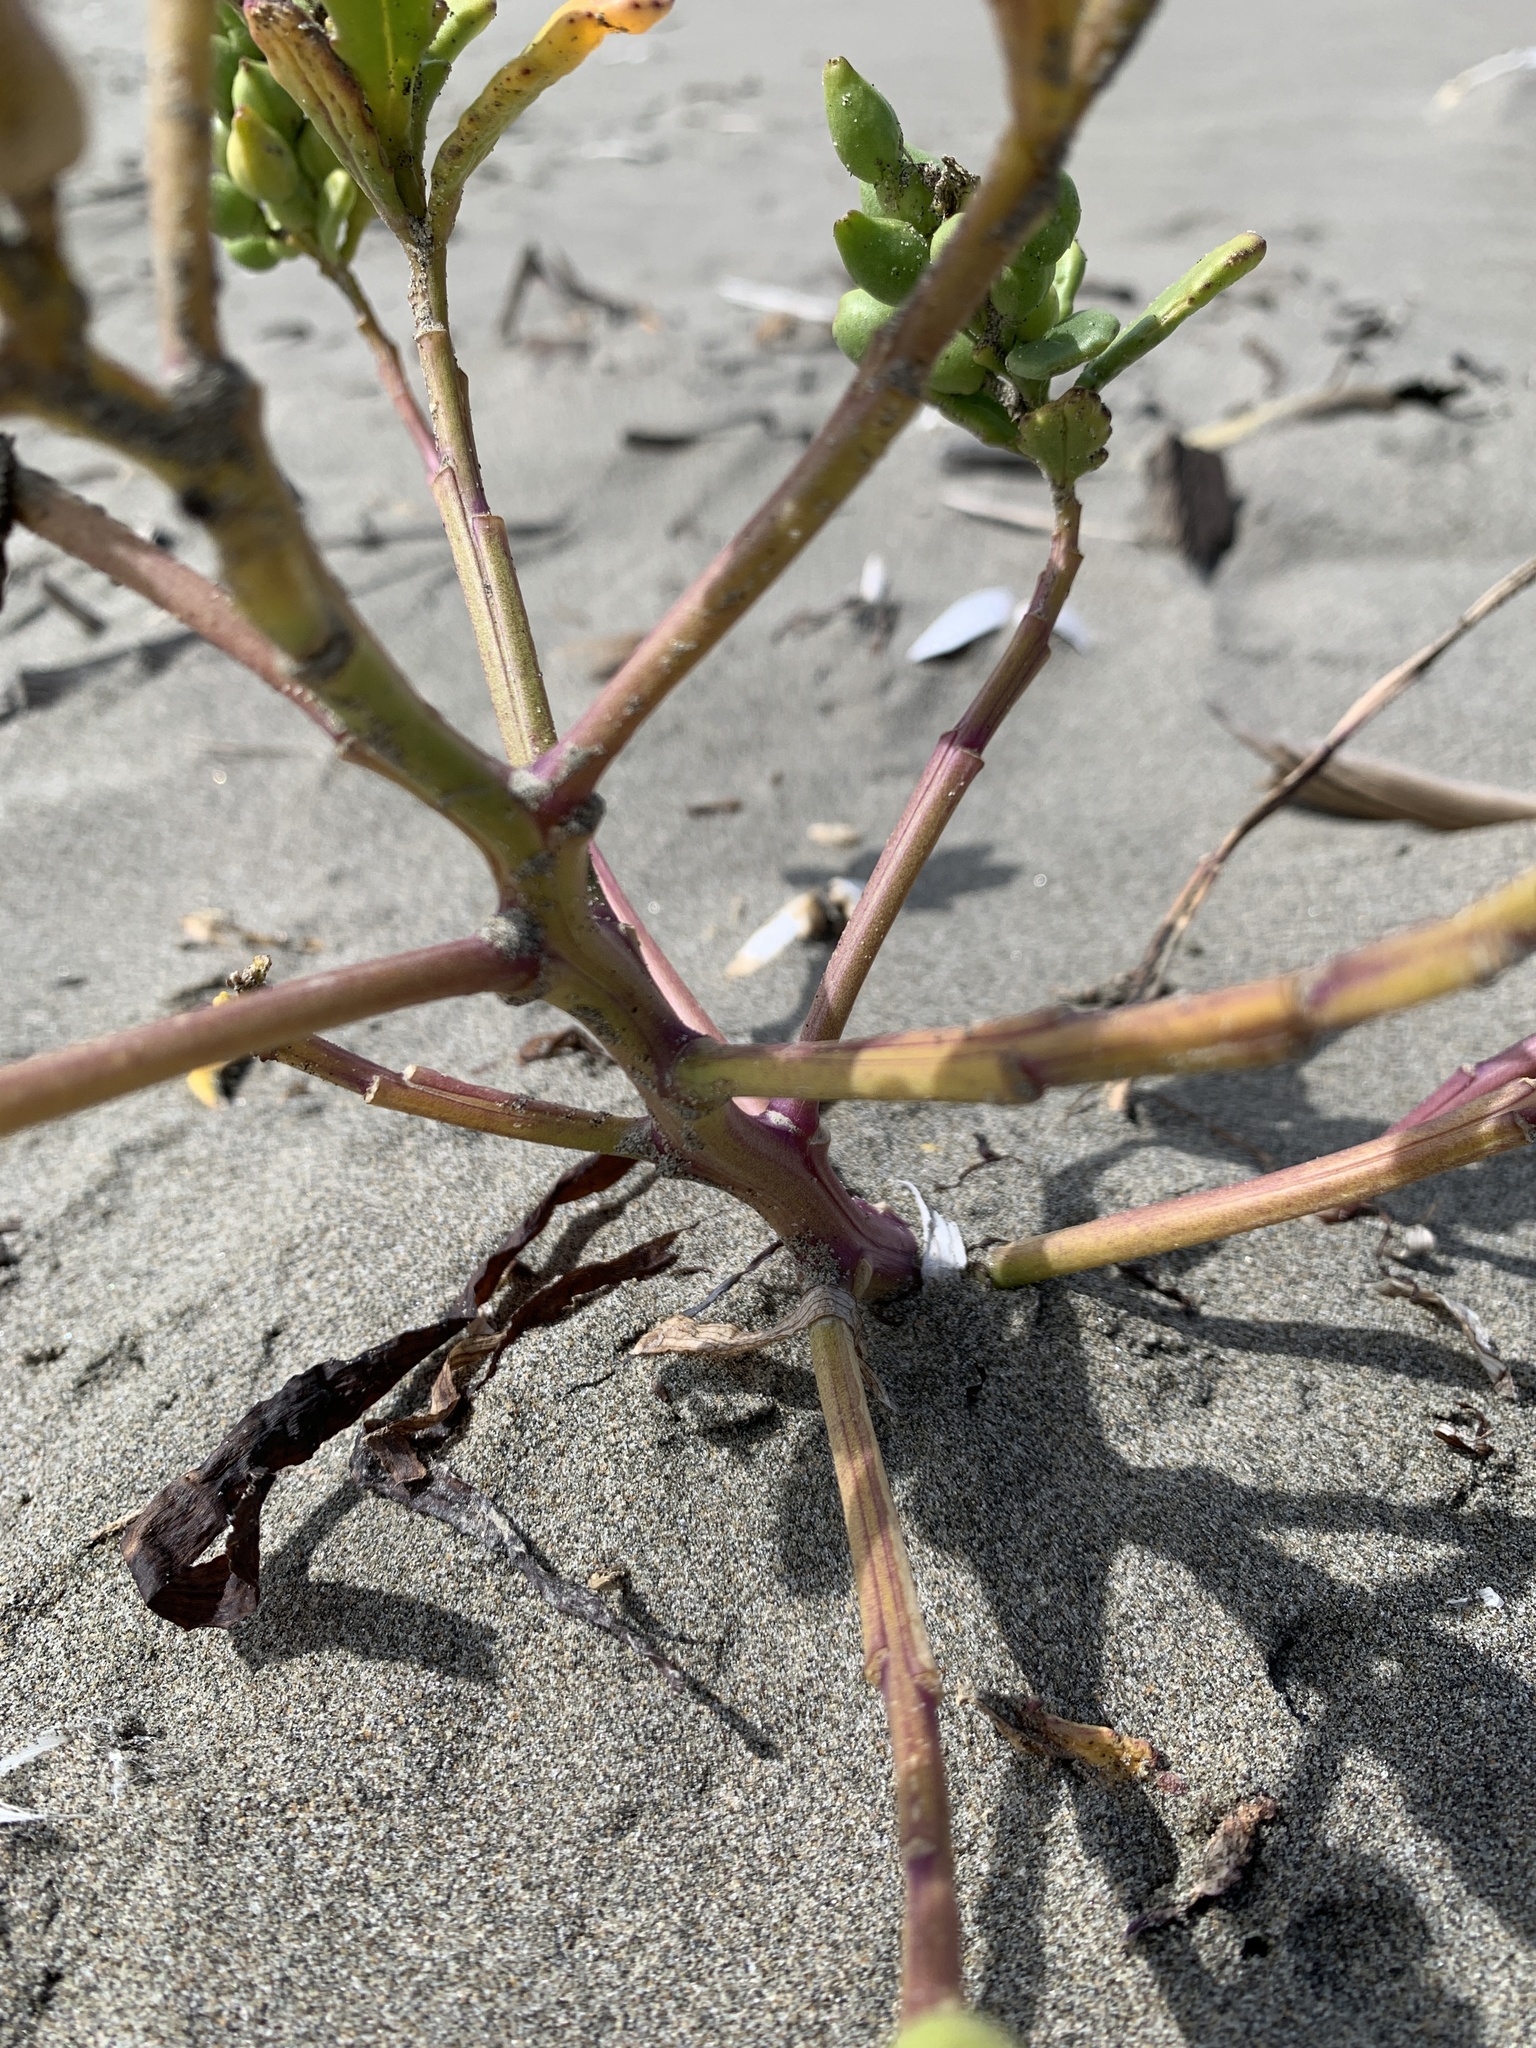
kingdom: Plantae
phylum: Tracheophyta
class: Magnoliopsida
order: Brassicales
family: Brassicaceae
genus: Cakile
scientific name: Cakile edentula
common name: American sea rocket
